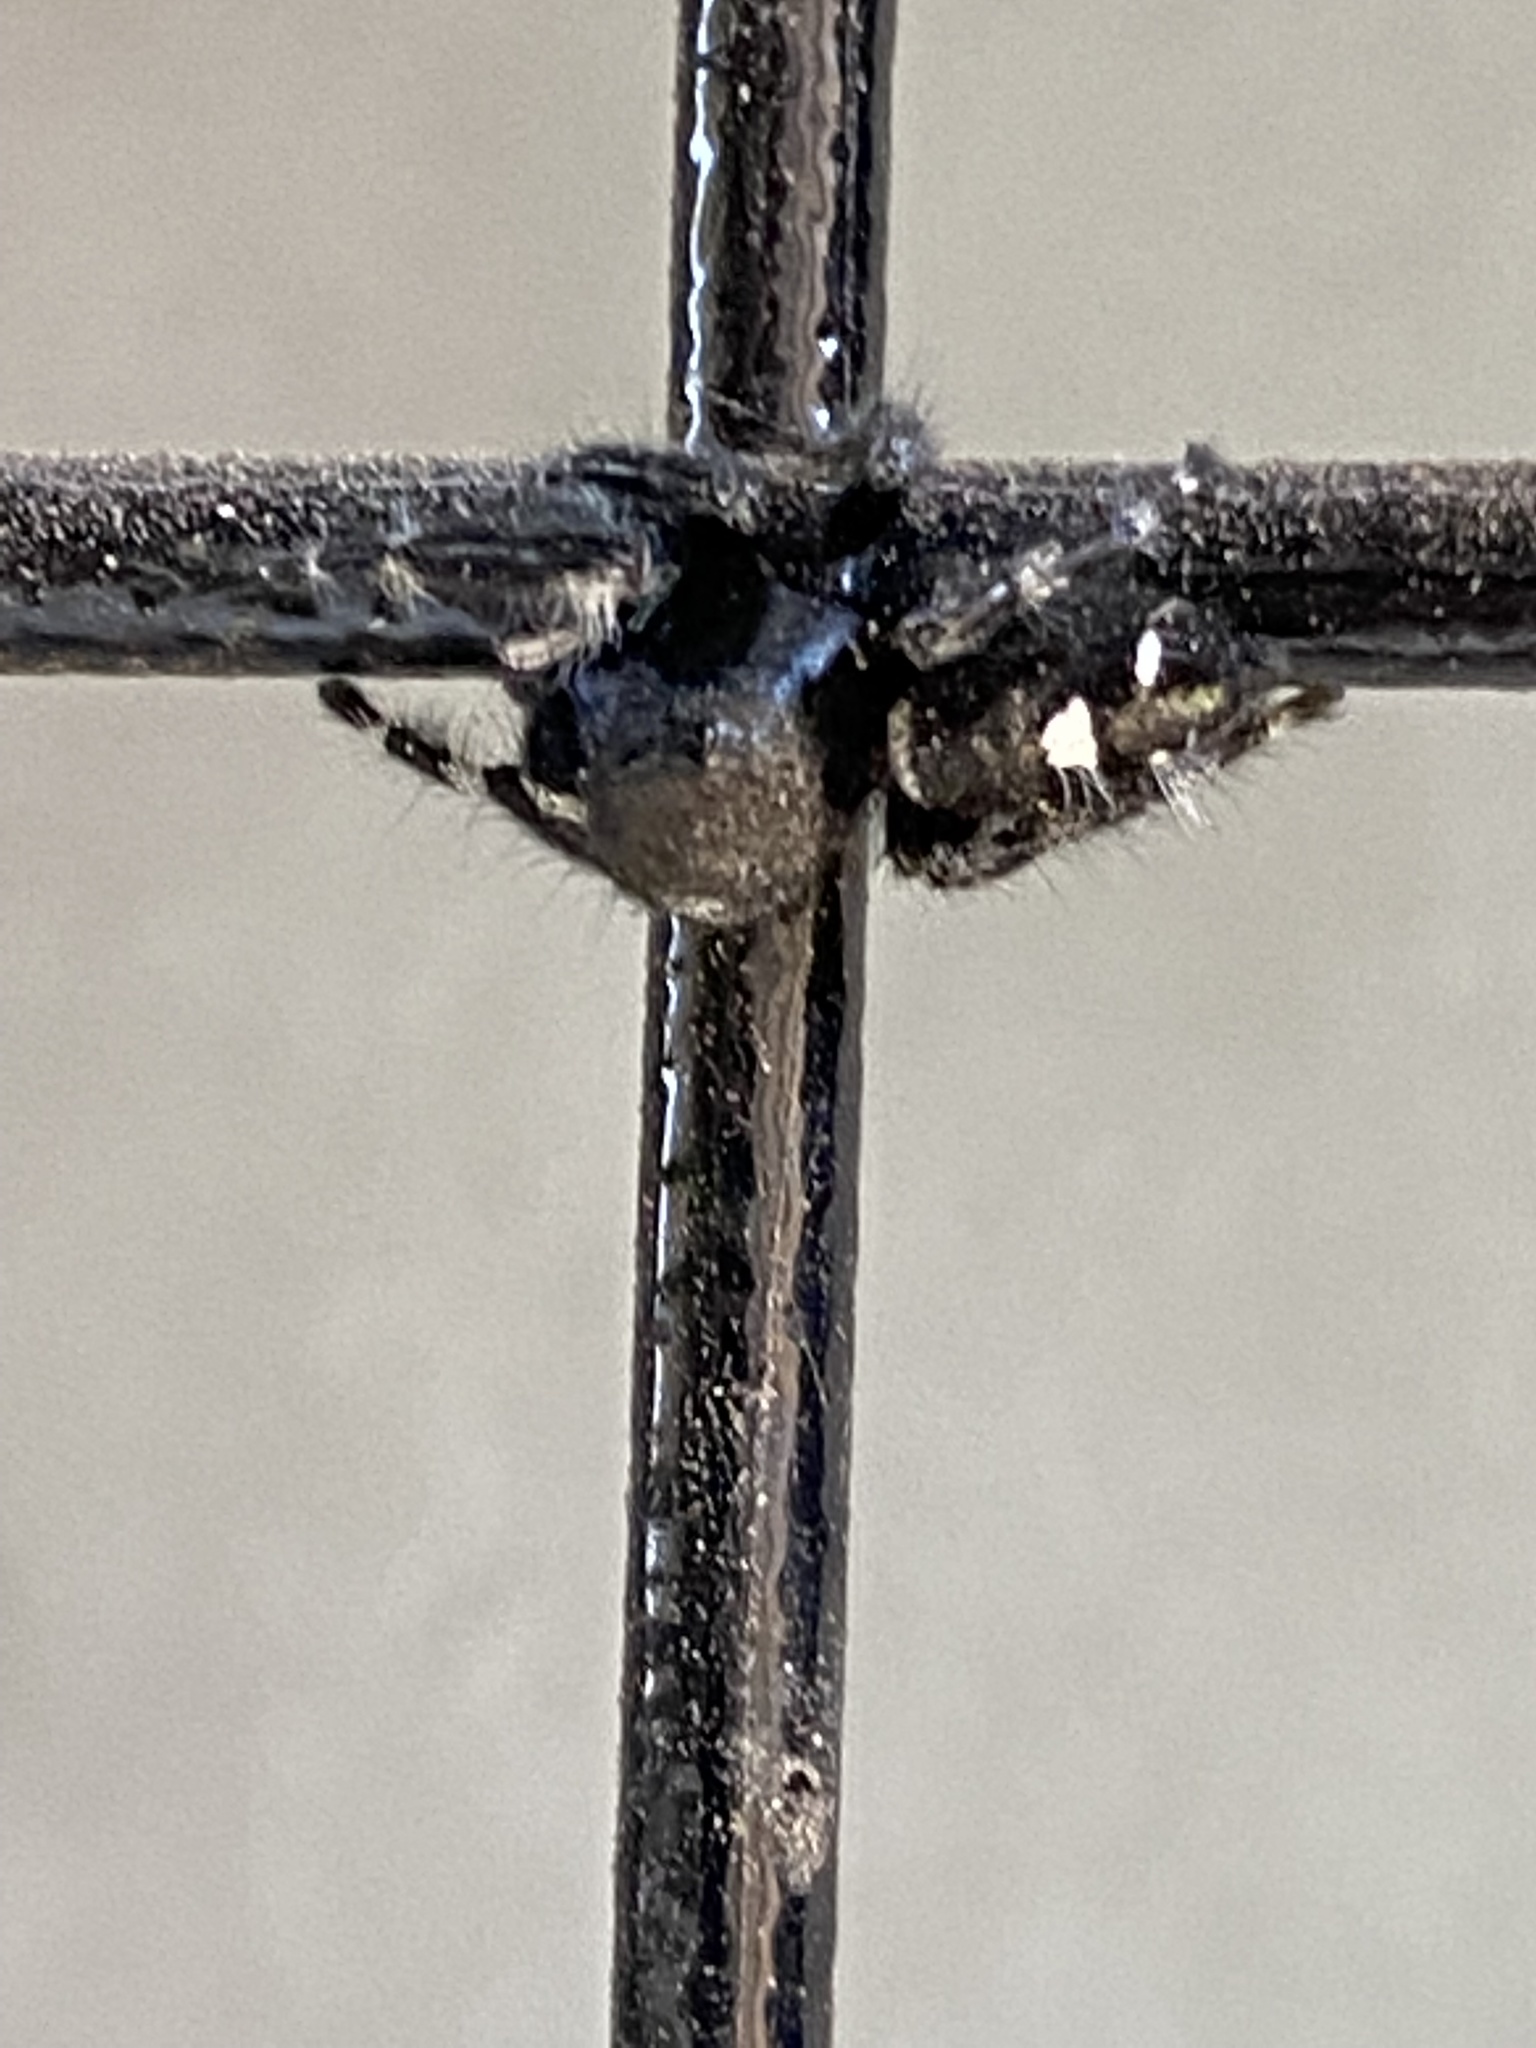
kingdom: Animalia
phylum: Arthropoda
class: Arachnida
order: Araneae
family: Salticidae
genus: Phidippus
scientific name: Phidippus audax
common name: Bold jumper
